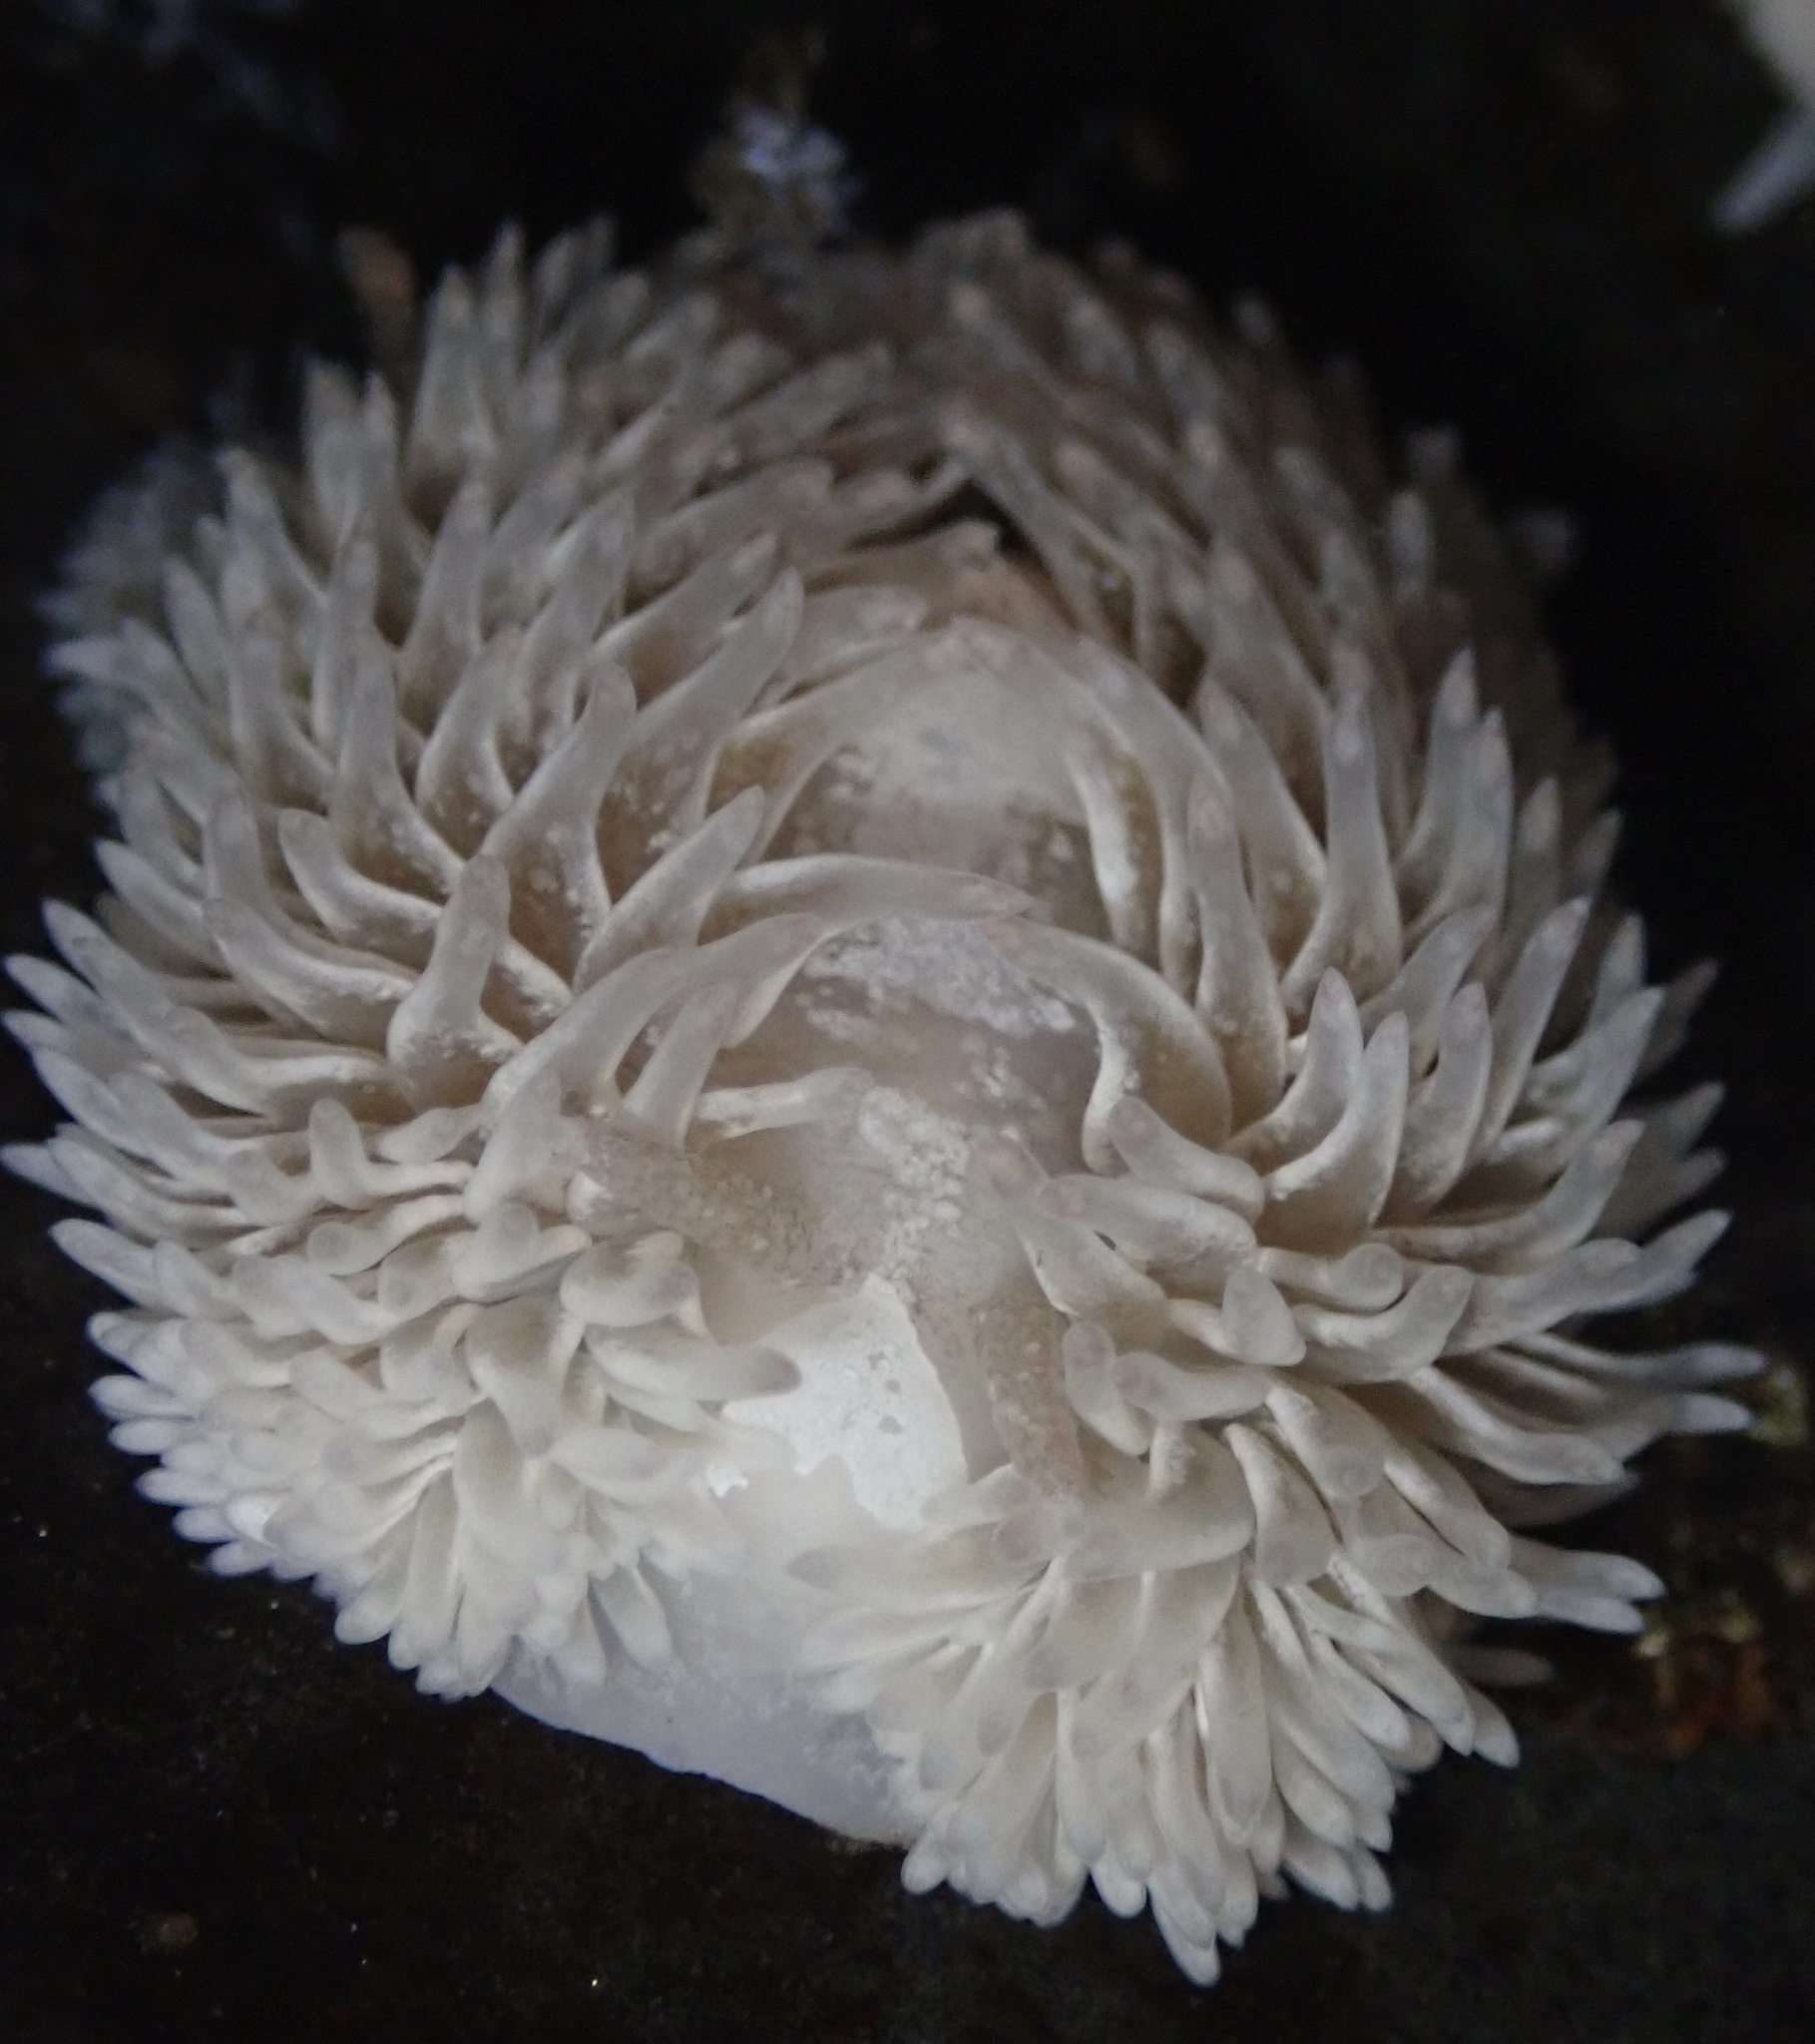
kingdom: Animalia
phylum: Mollusca
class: Gastropoda
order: Nudibranchia
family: Aeolidiidae
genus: Aeolidia
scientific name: Aeolidia loui
